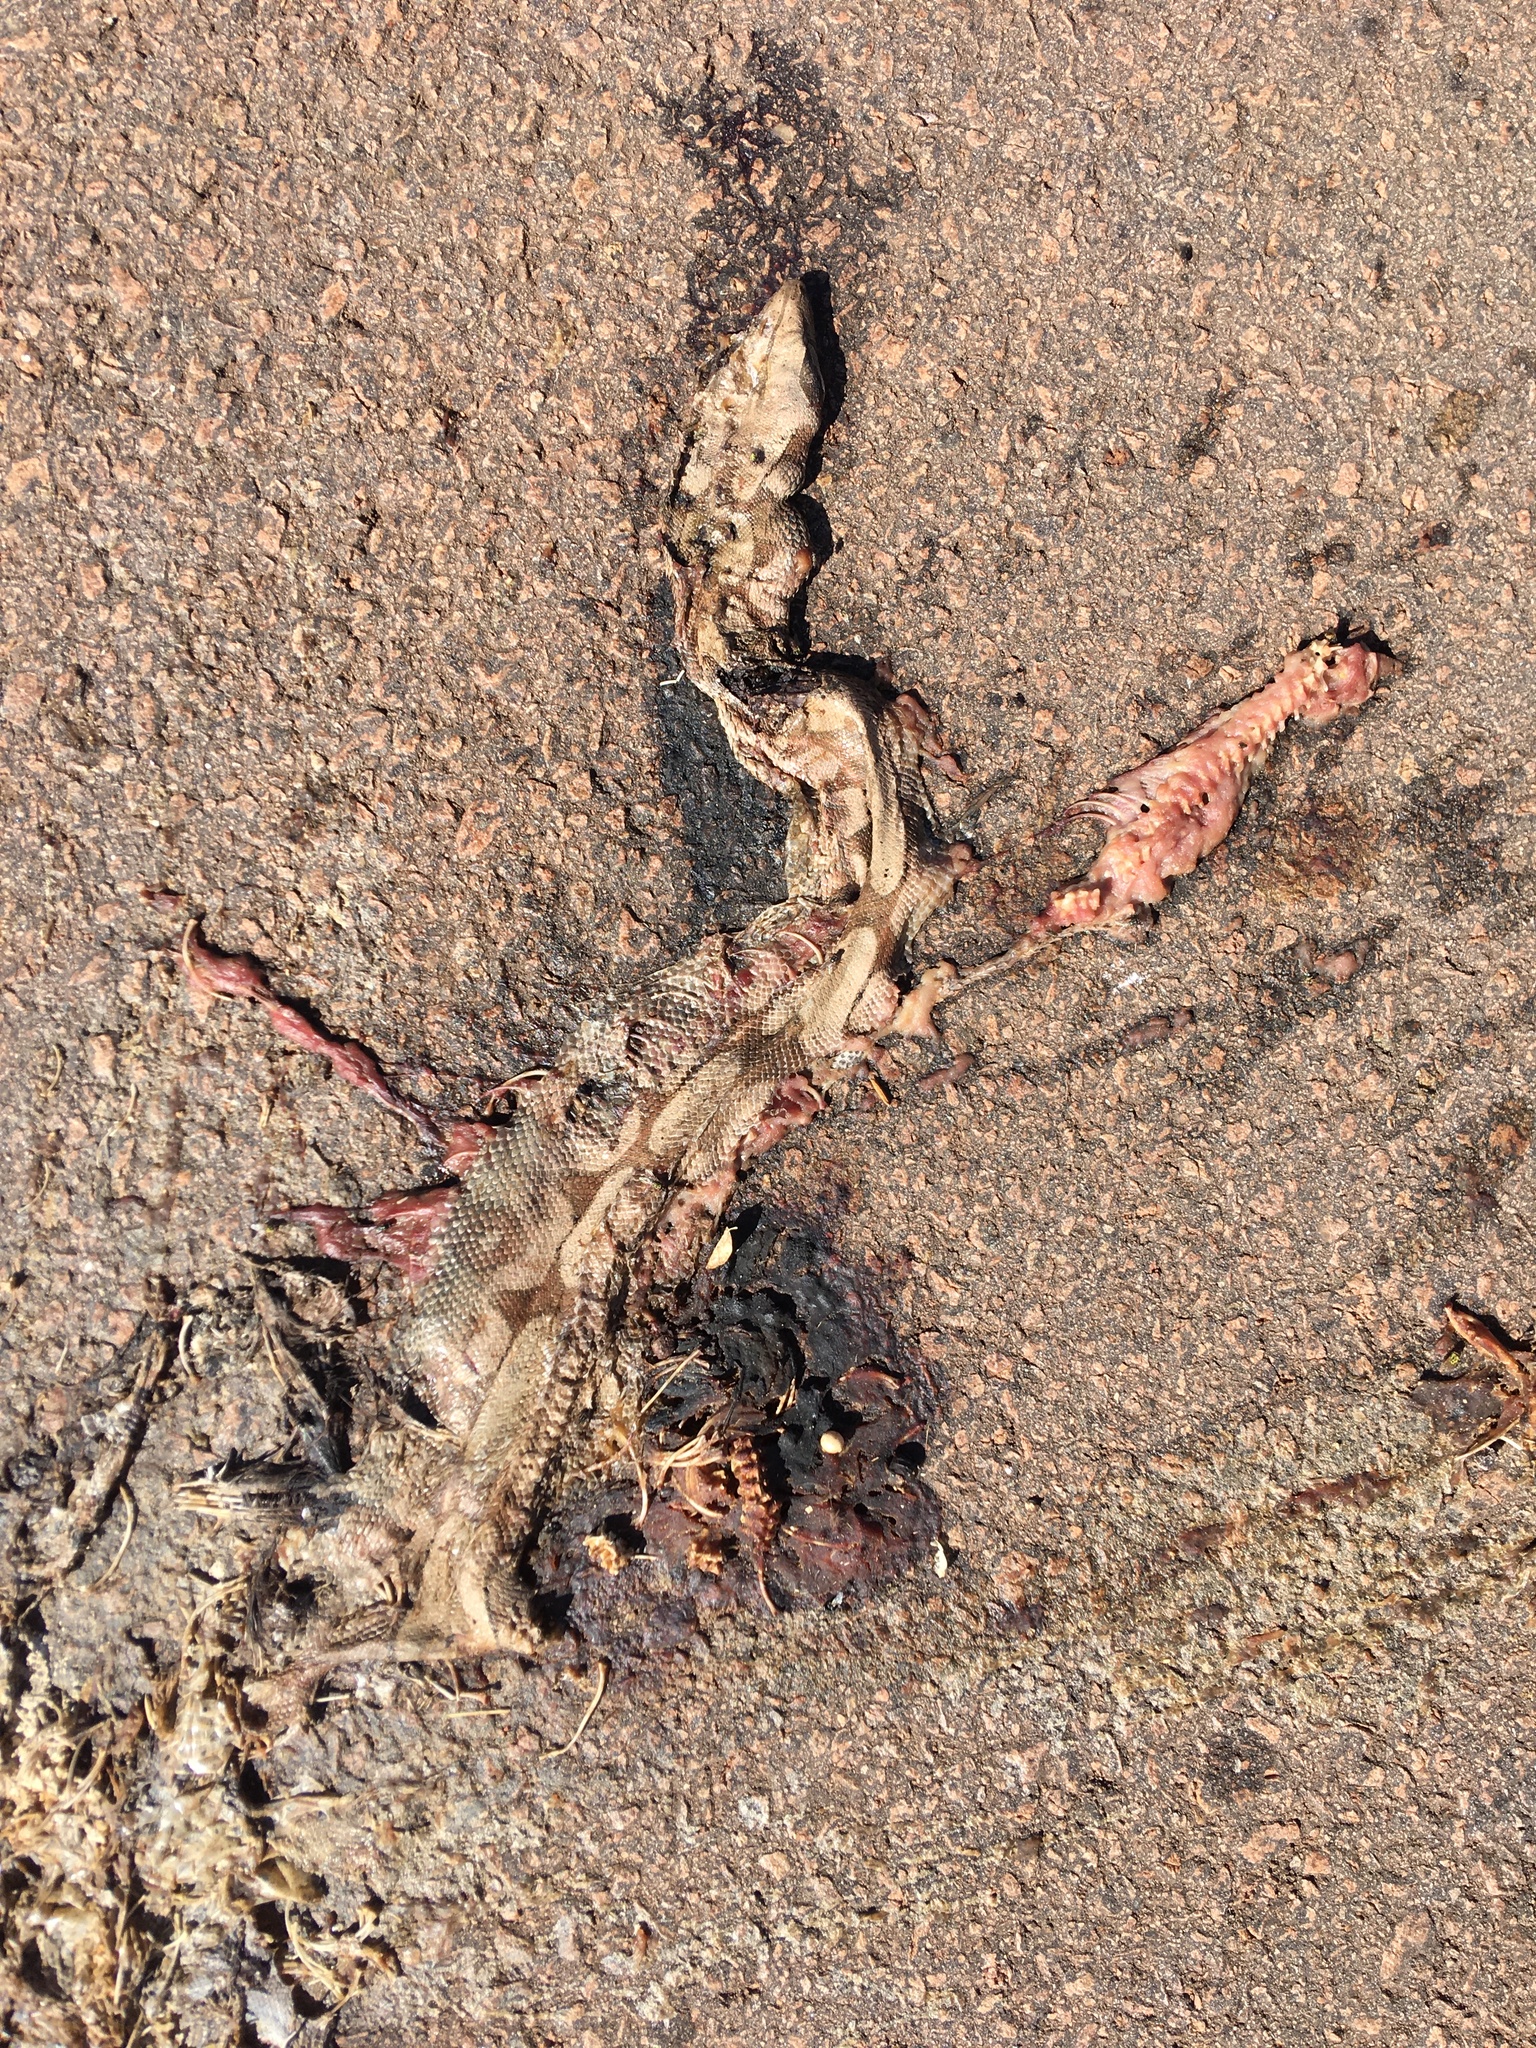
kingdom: Animalia
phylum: Chordata
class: Squamata
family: Boidae
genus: Boa
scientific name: Boa constrictor
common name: Boa constrictor
